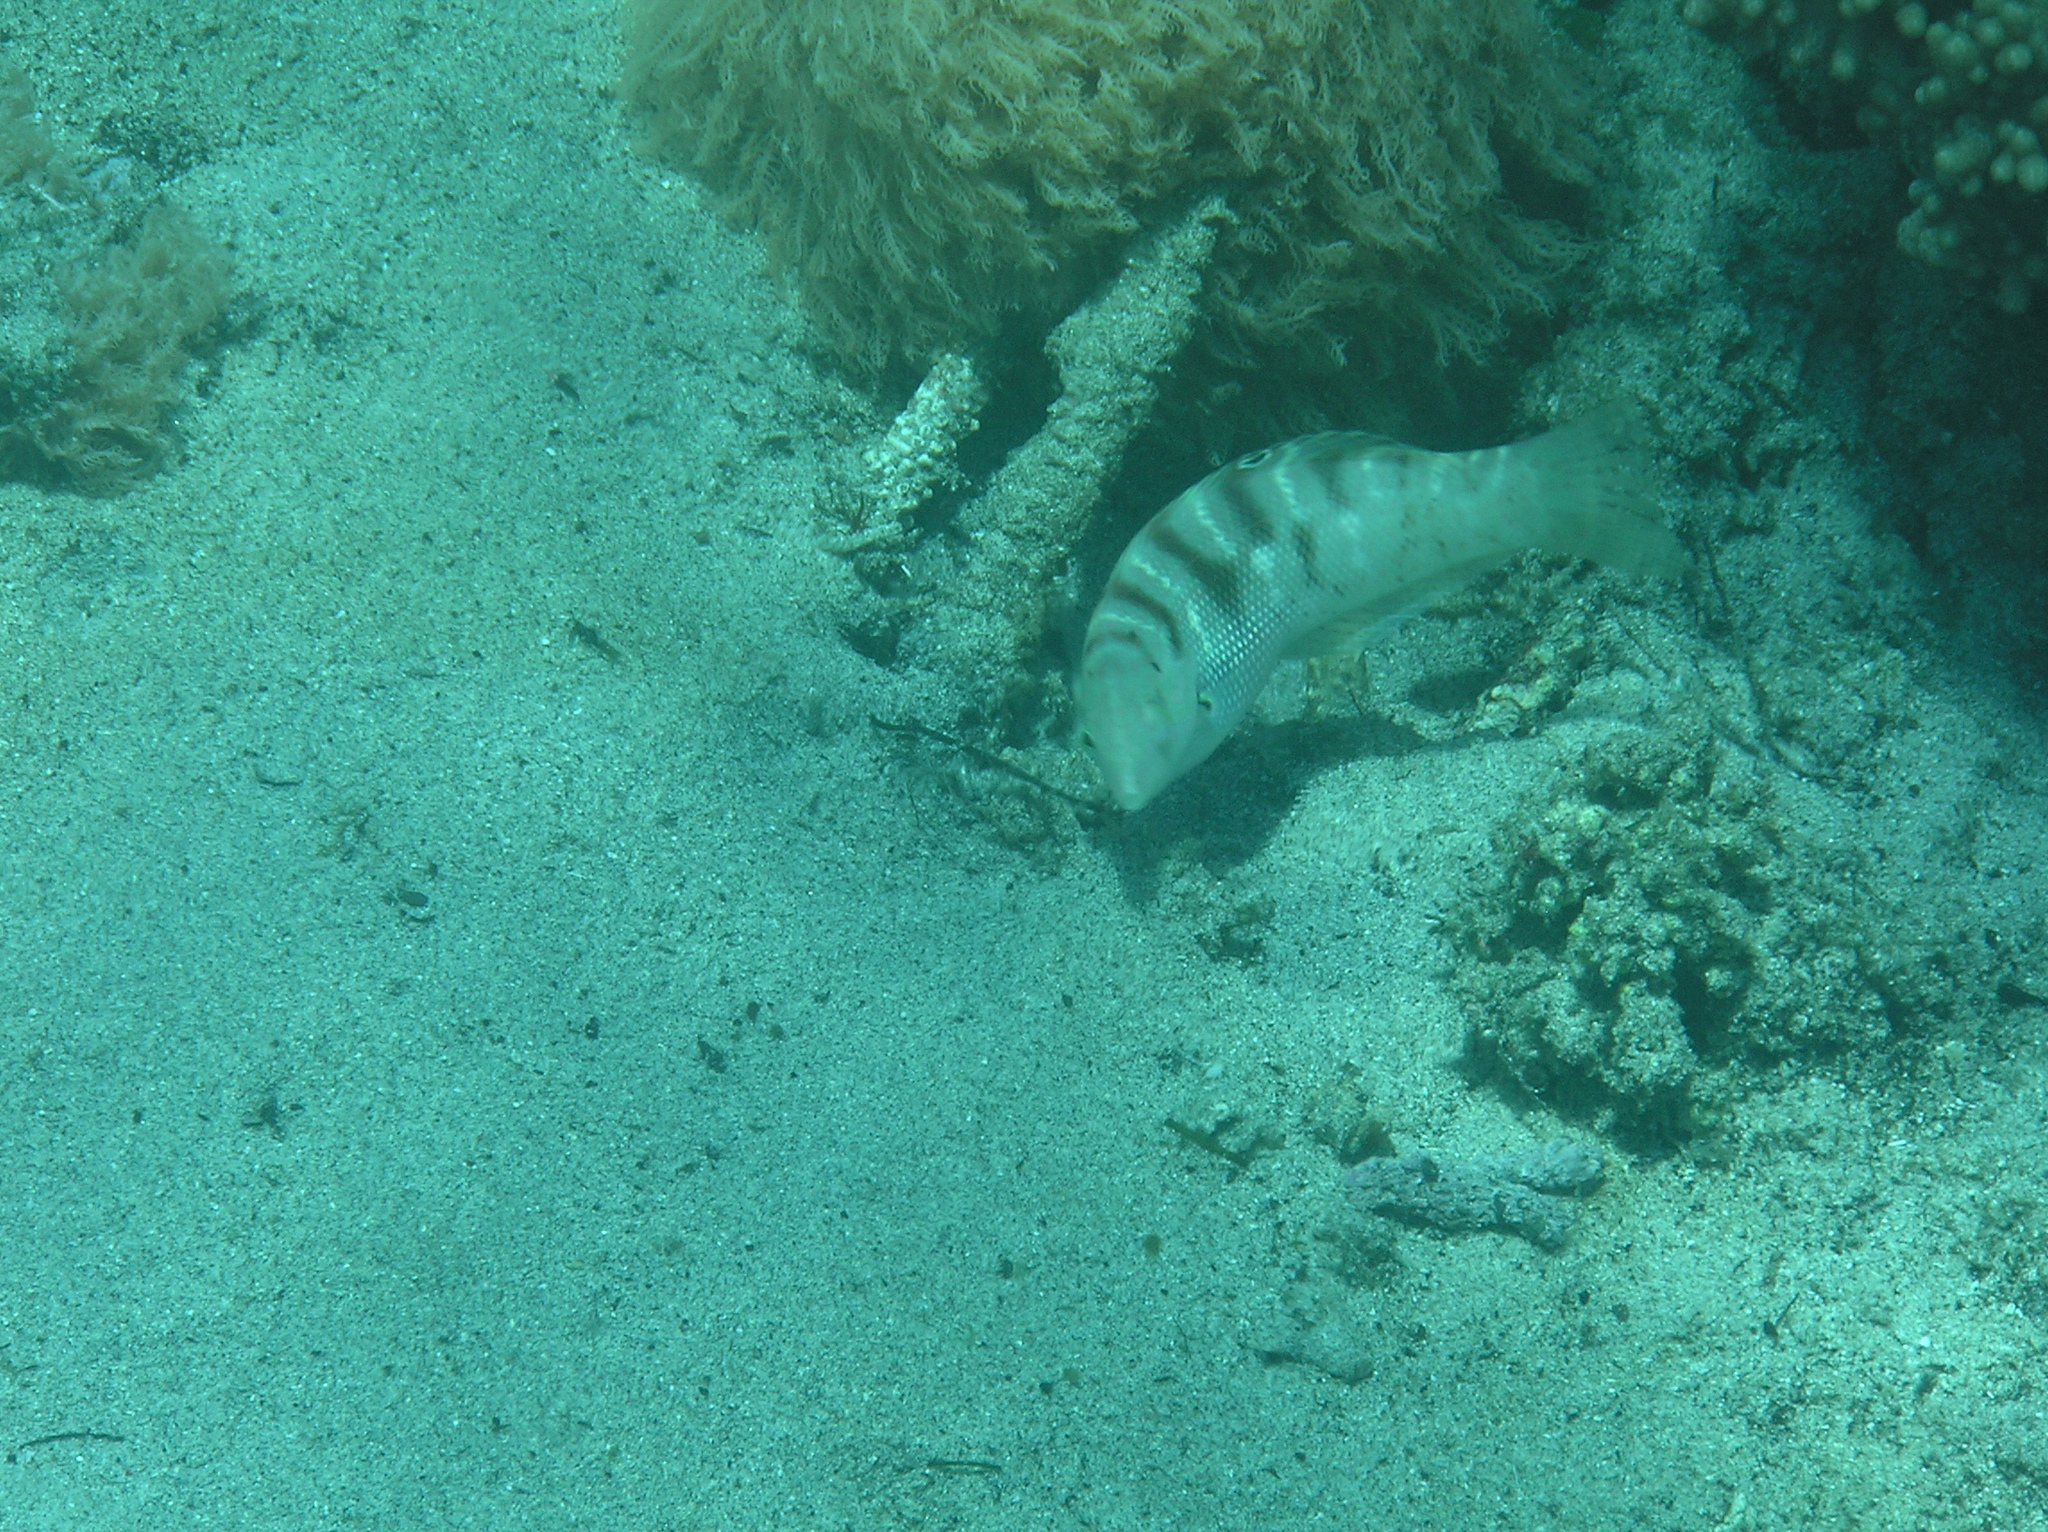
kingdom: Animalia
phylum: Chordata
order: Perciformes
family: Labridae
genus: Coris
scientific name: Coris batuensis
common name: Batu coris
